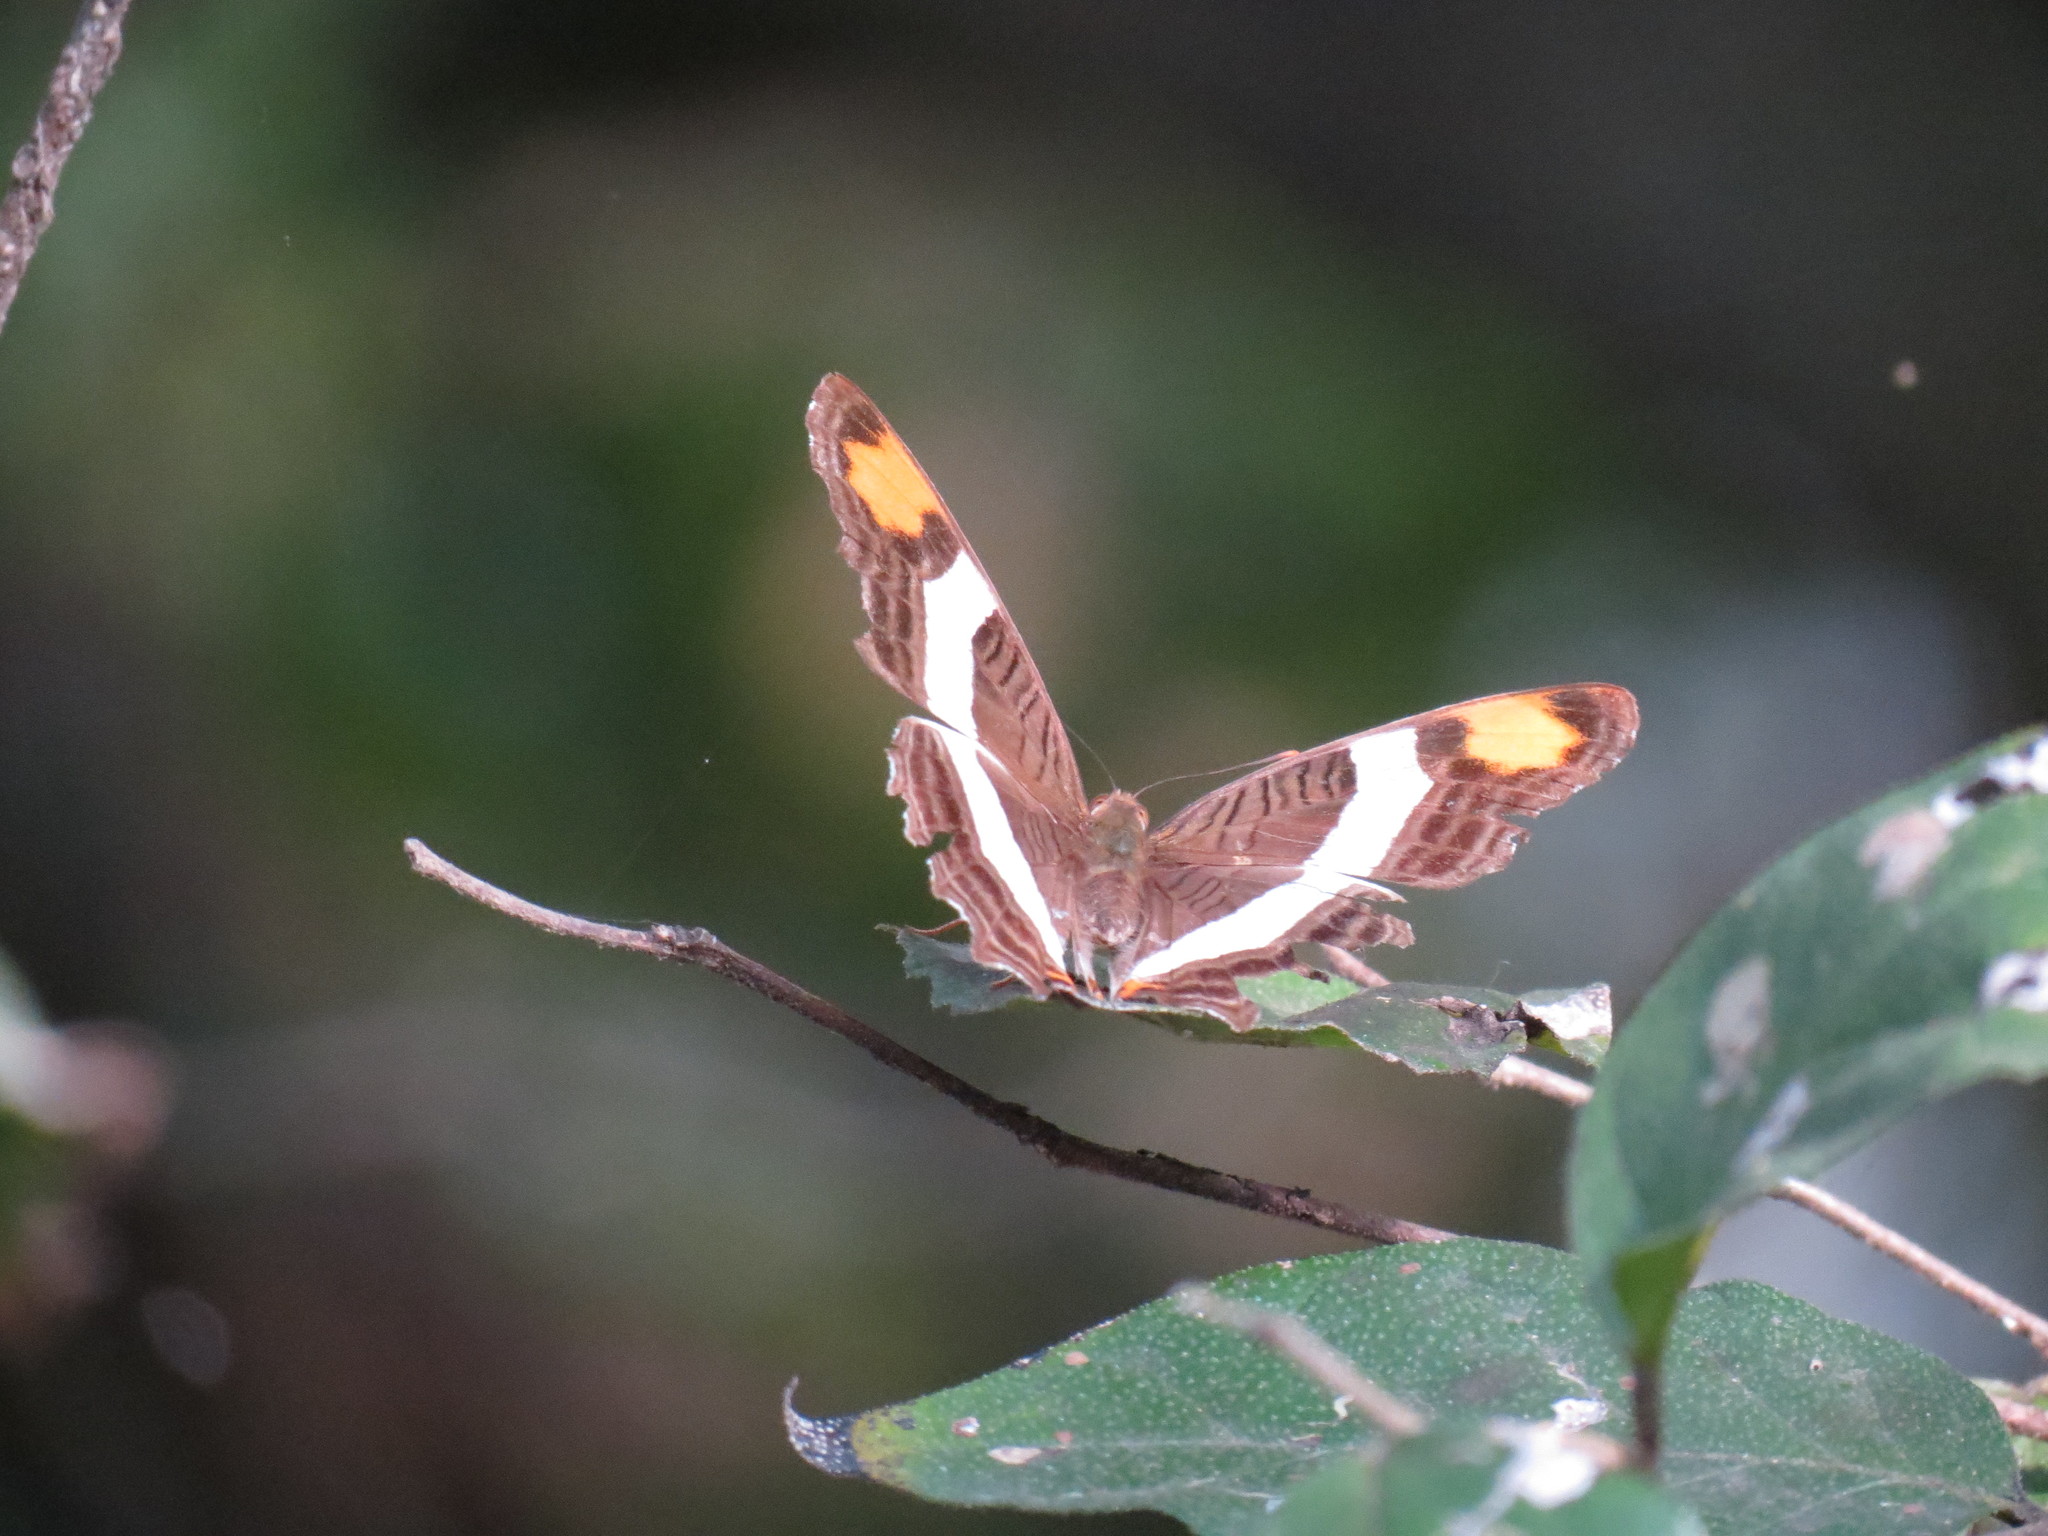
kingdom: Animalia
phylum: Arthropoda
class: Insecta
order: Lepidoptera
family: Nymphalidae
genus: Limenitis
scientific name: Limenitis fessonia
